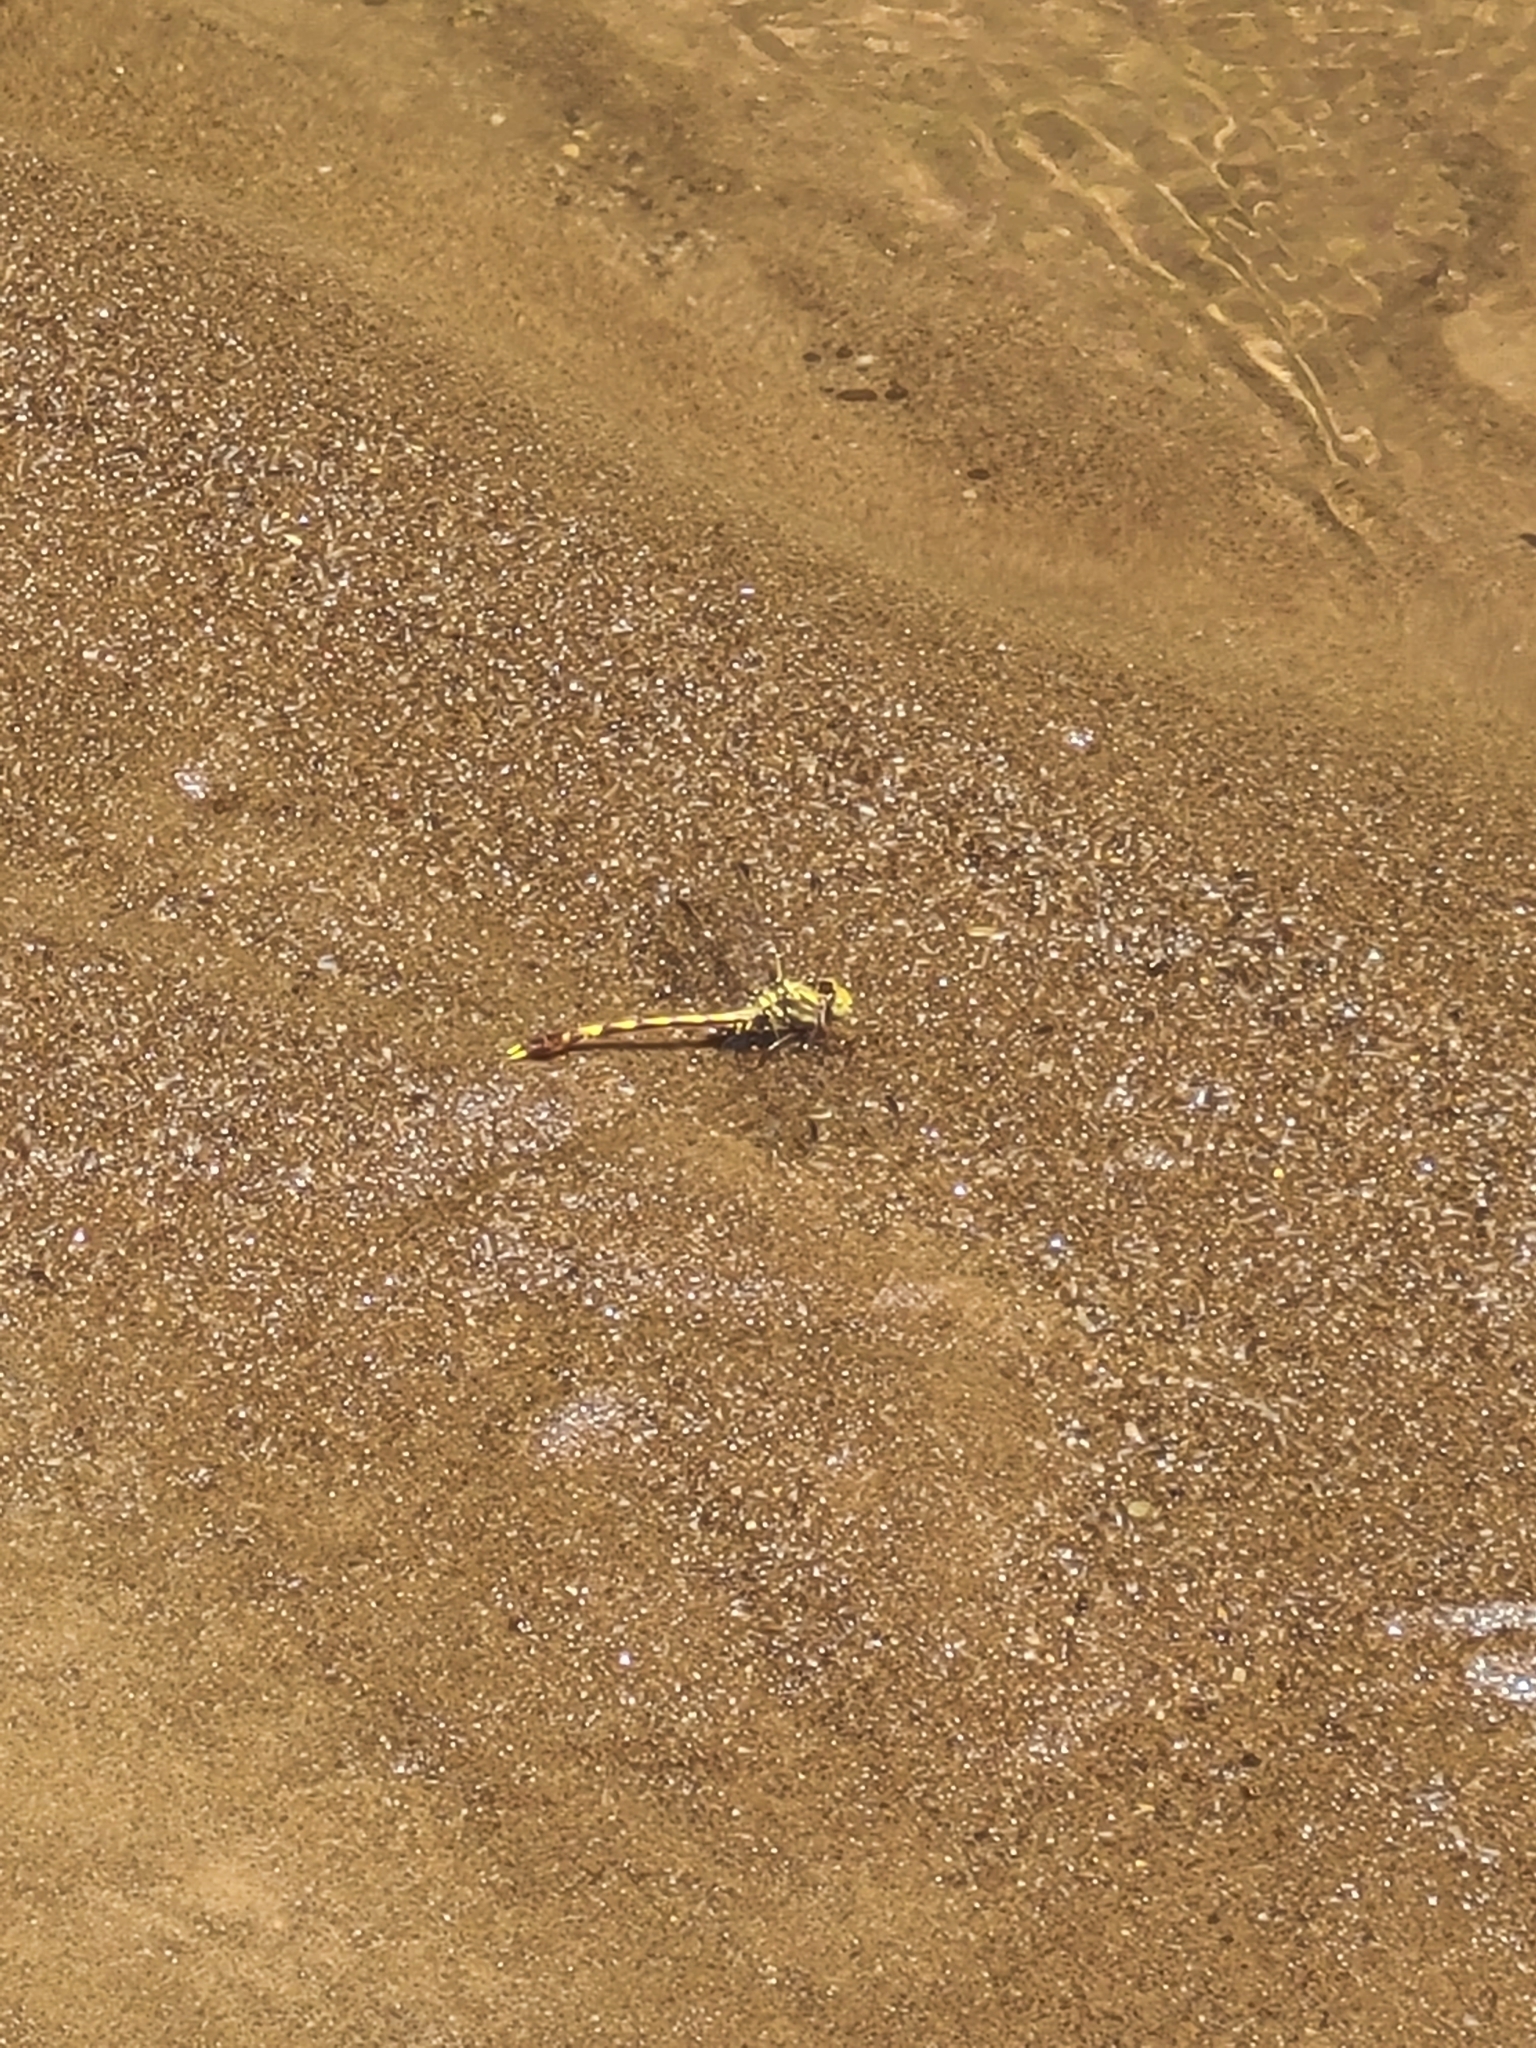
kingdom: Animalia
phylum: Arthropoda
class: Insecta
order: Odonata
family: Gomphidae
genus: Progomphus
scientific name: Progomphus obscurus
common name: Common sanddragon
